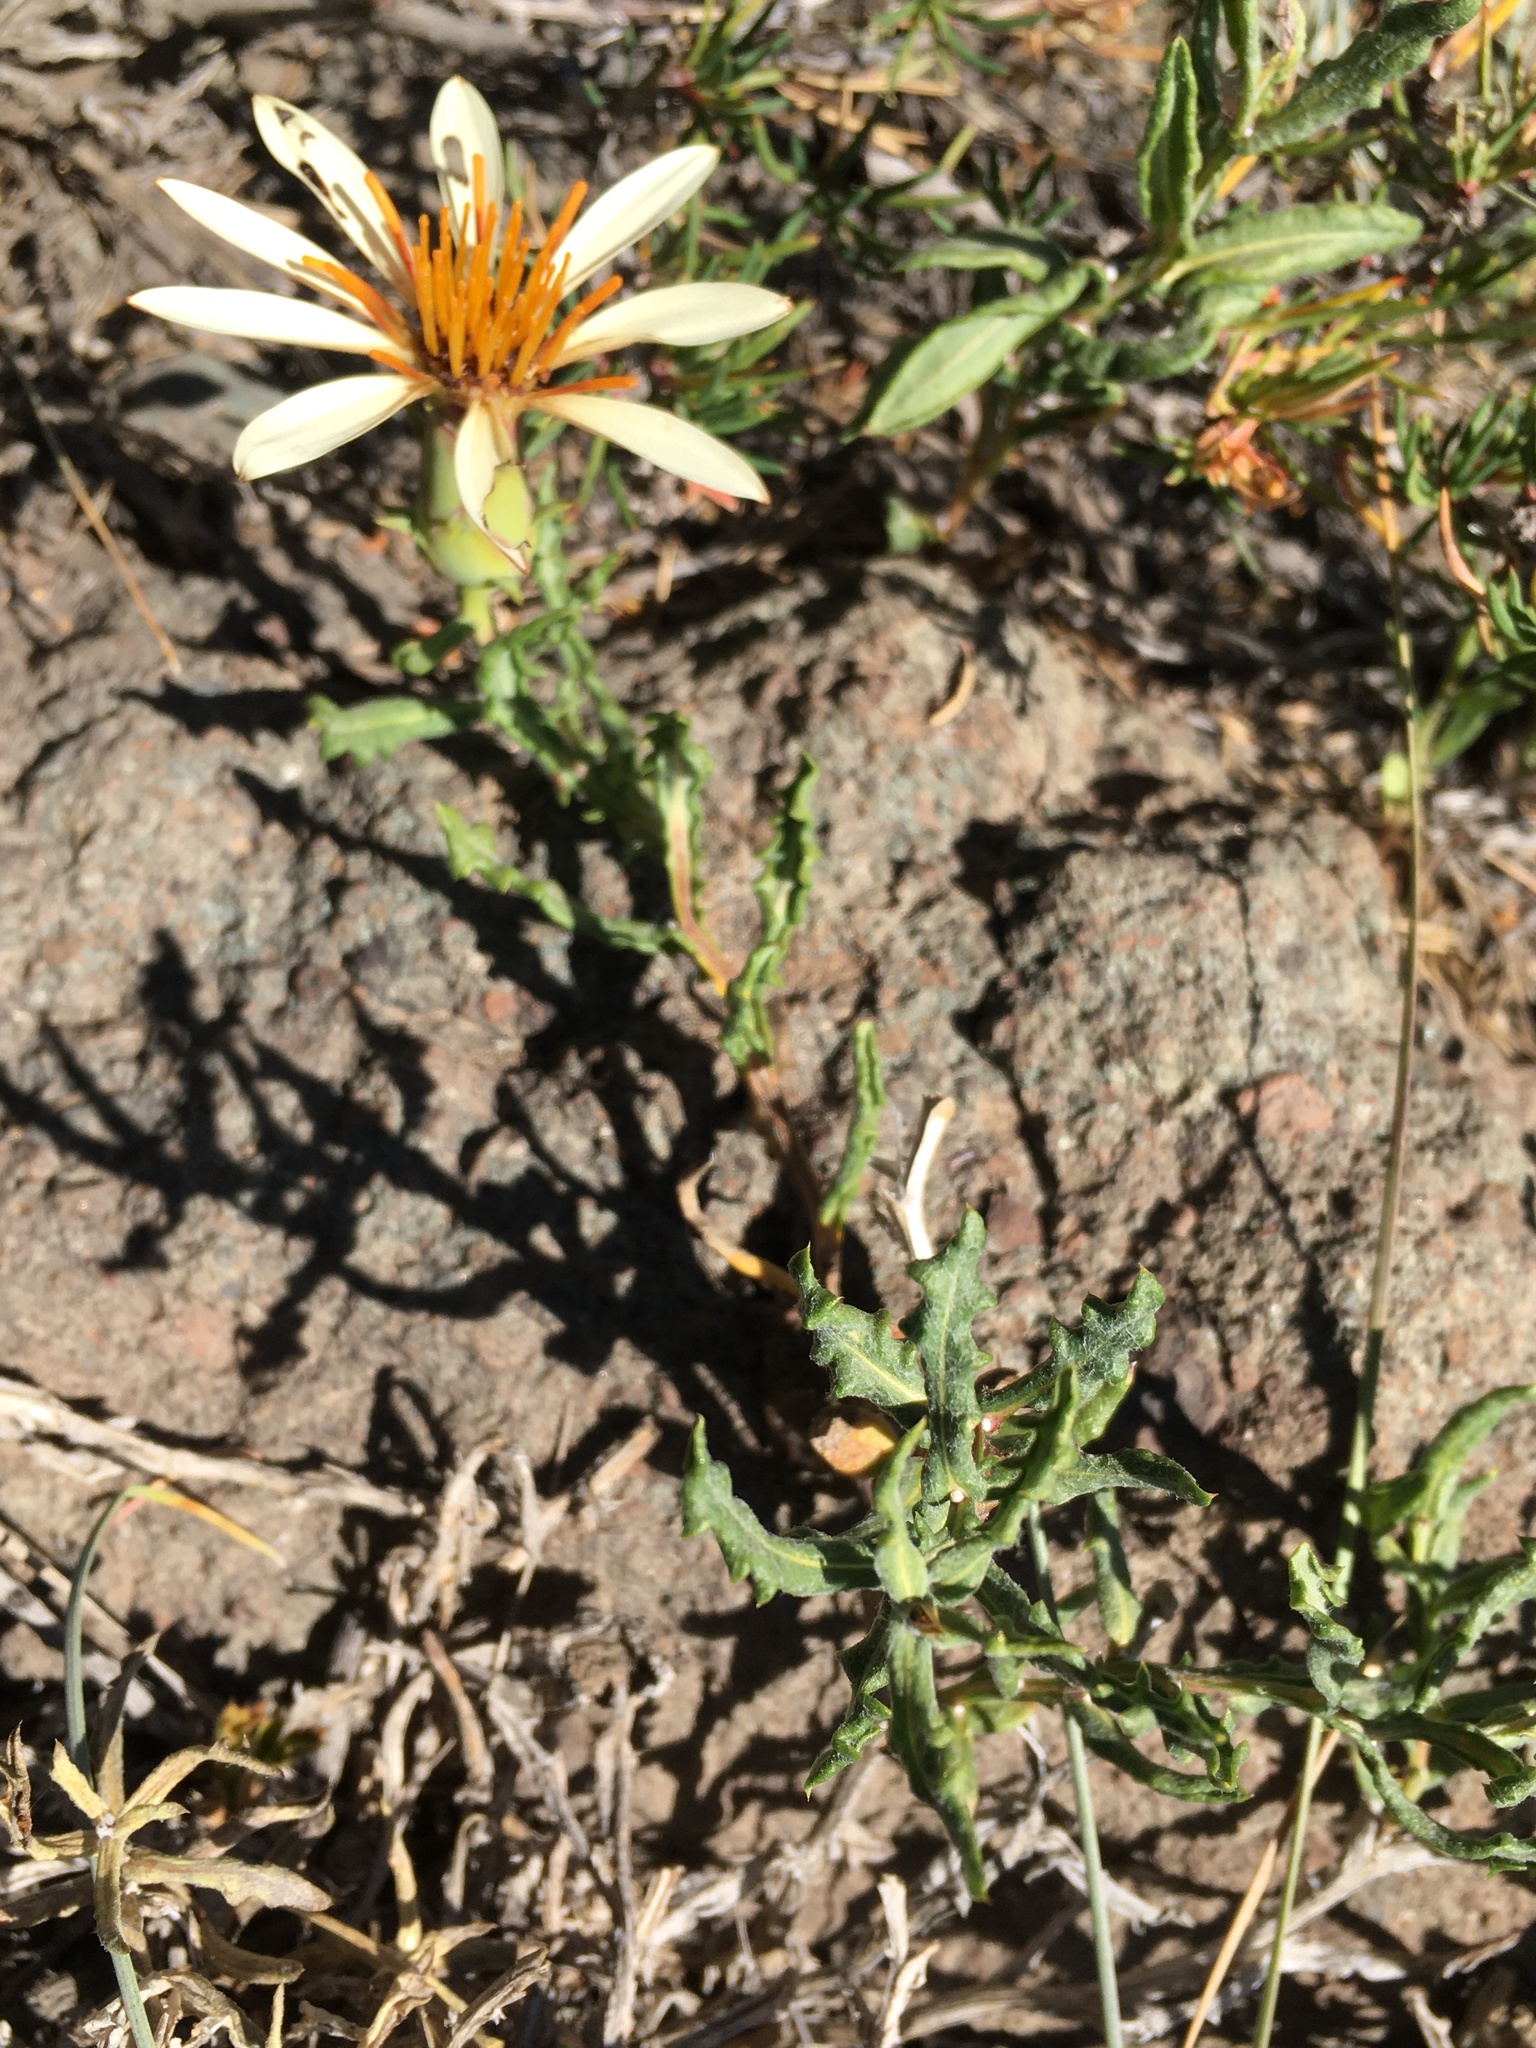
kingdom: Plantae
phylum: Tracheophyta
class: Magnoliopsida
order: Asterales
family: Asteraceae
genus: Mutisia
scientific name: Mutisia sinuata
